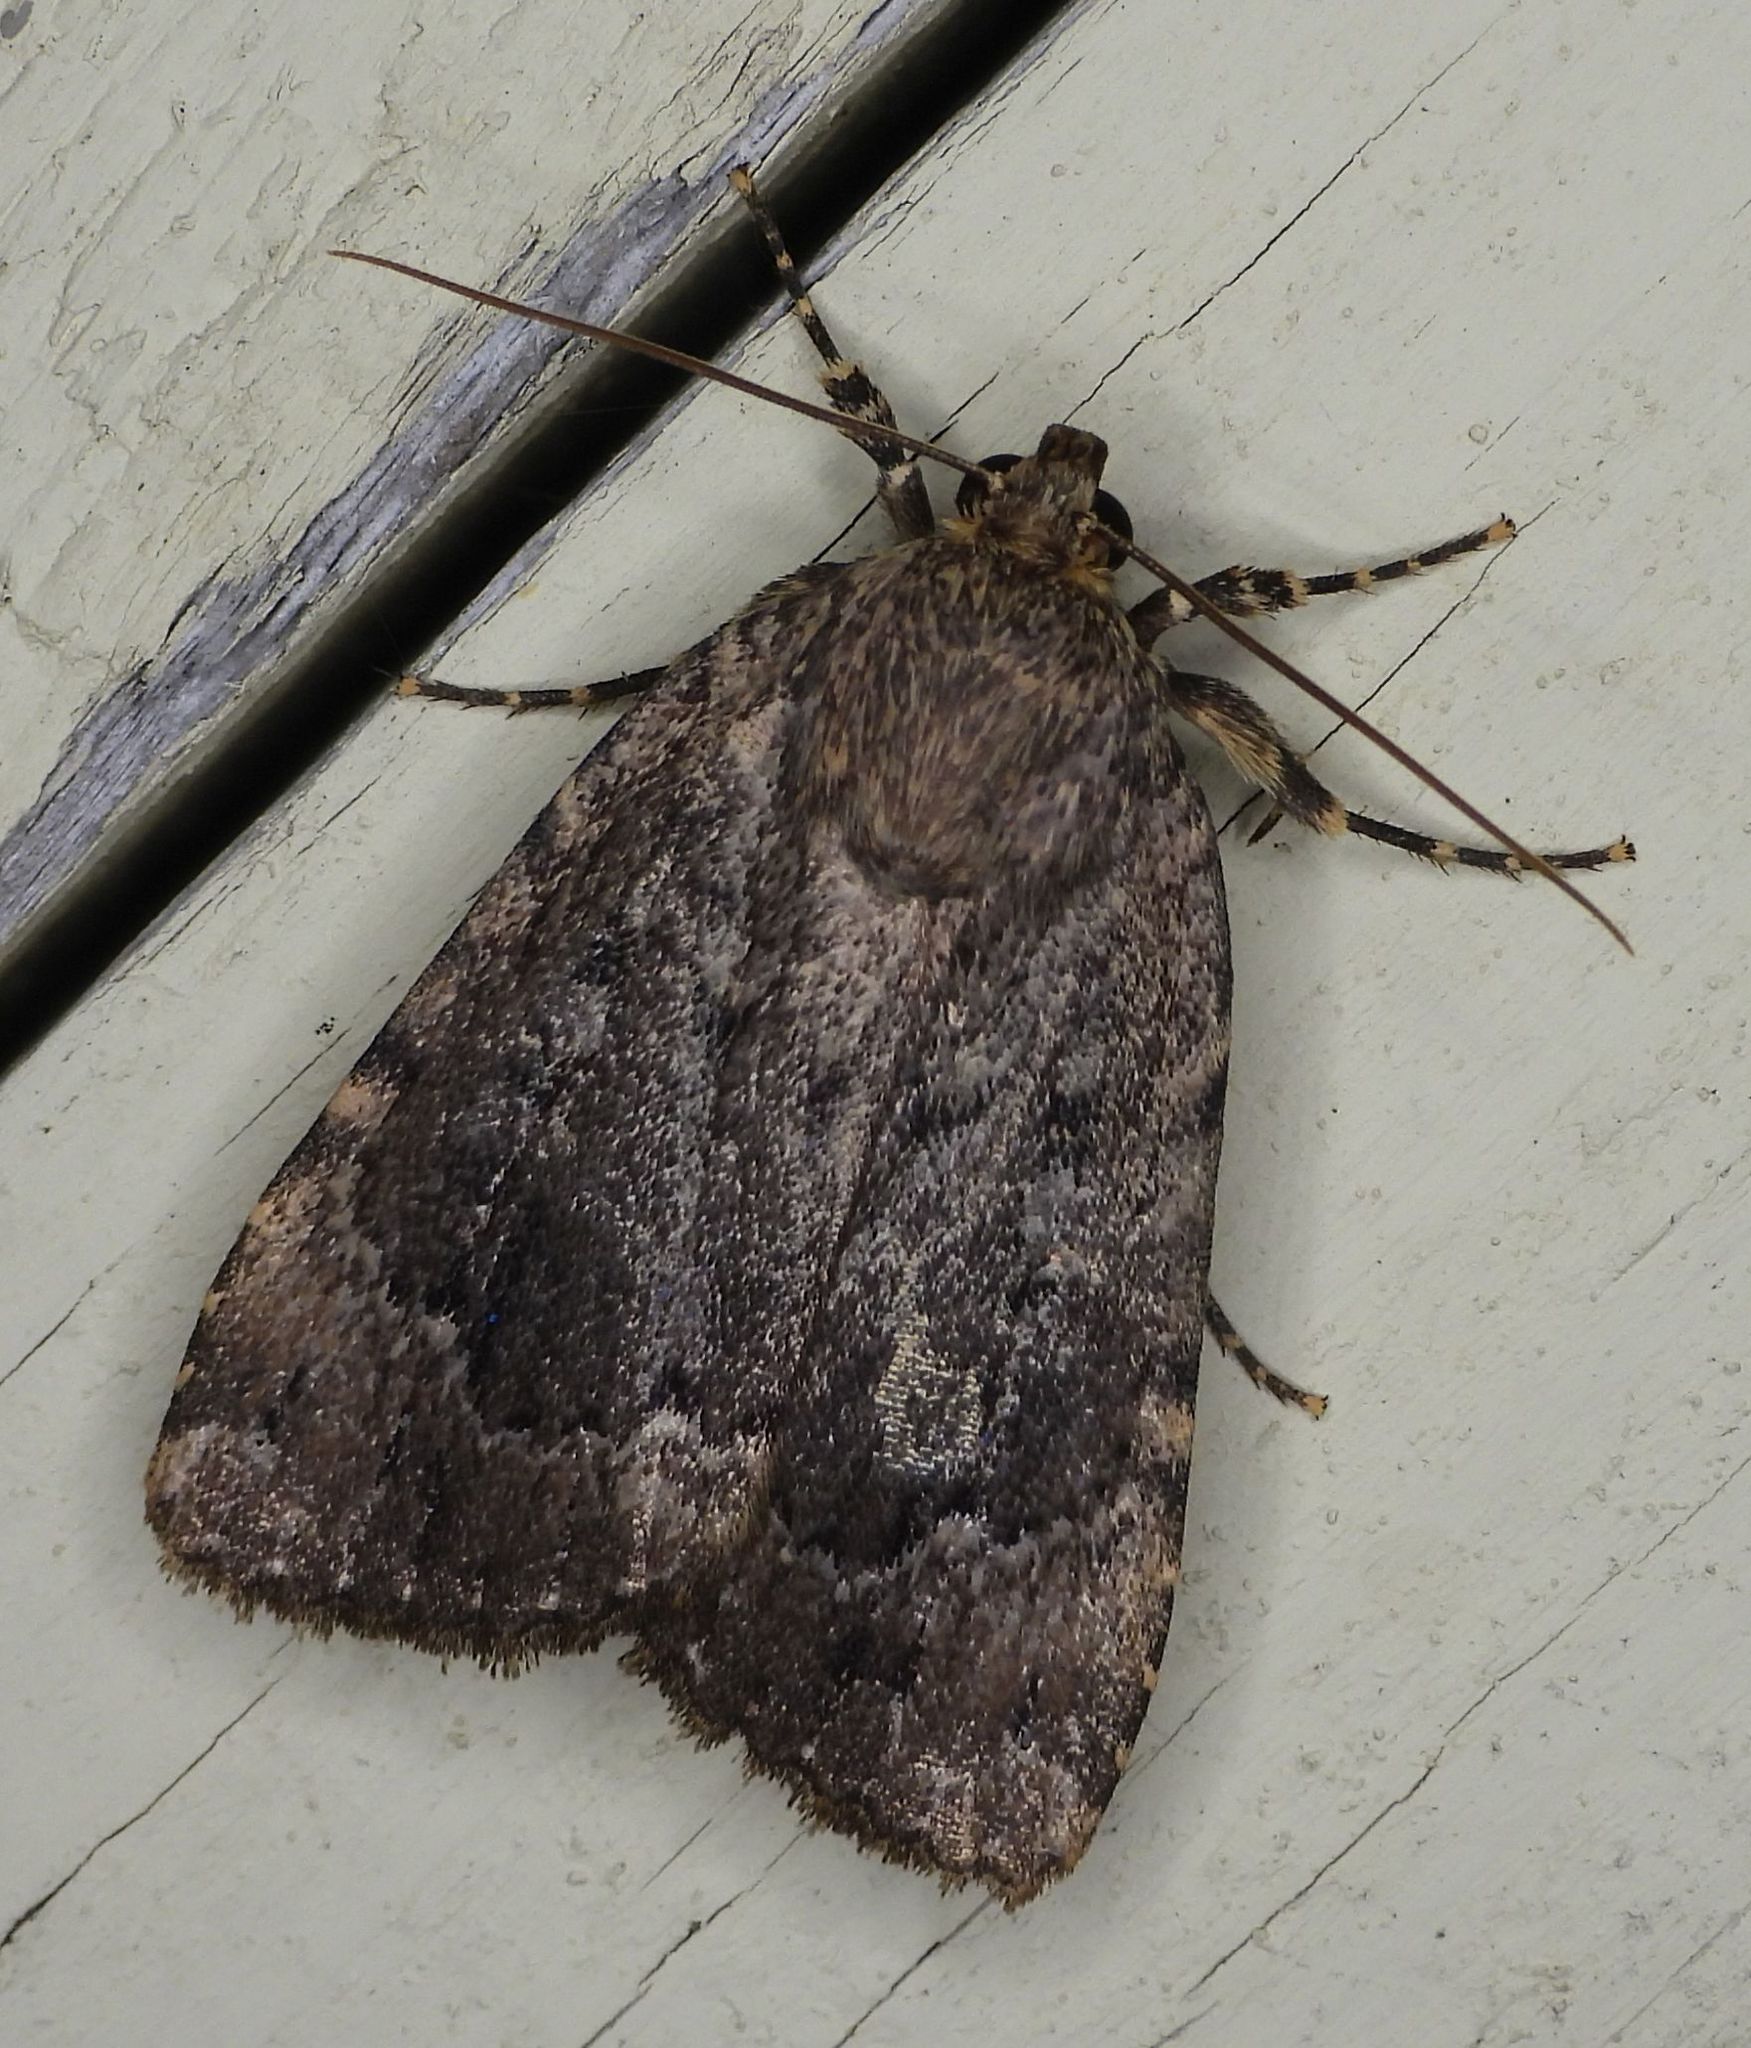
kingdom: Animalia
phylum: Arthropoda
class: Insecta
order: Lepidoptera
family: Noctuidae
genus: Amphipyra
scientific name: Amphipyra pyramidoides
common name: American copper underwing
